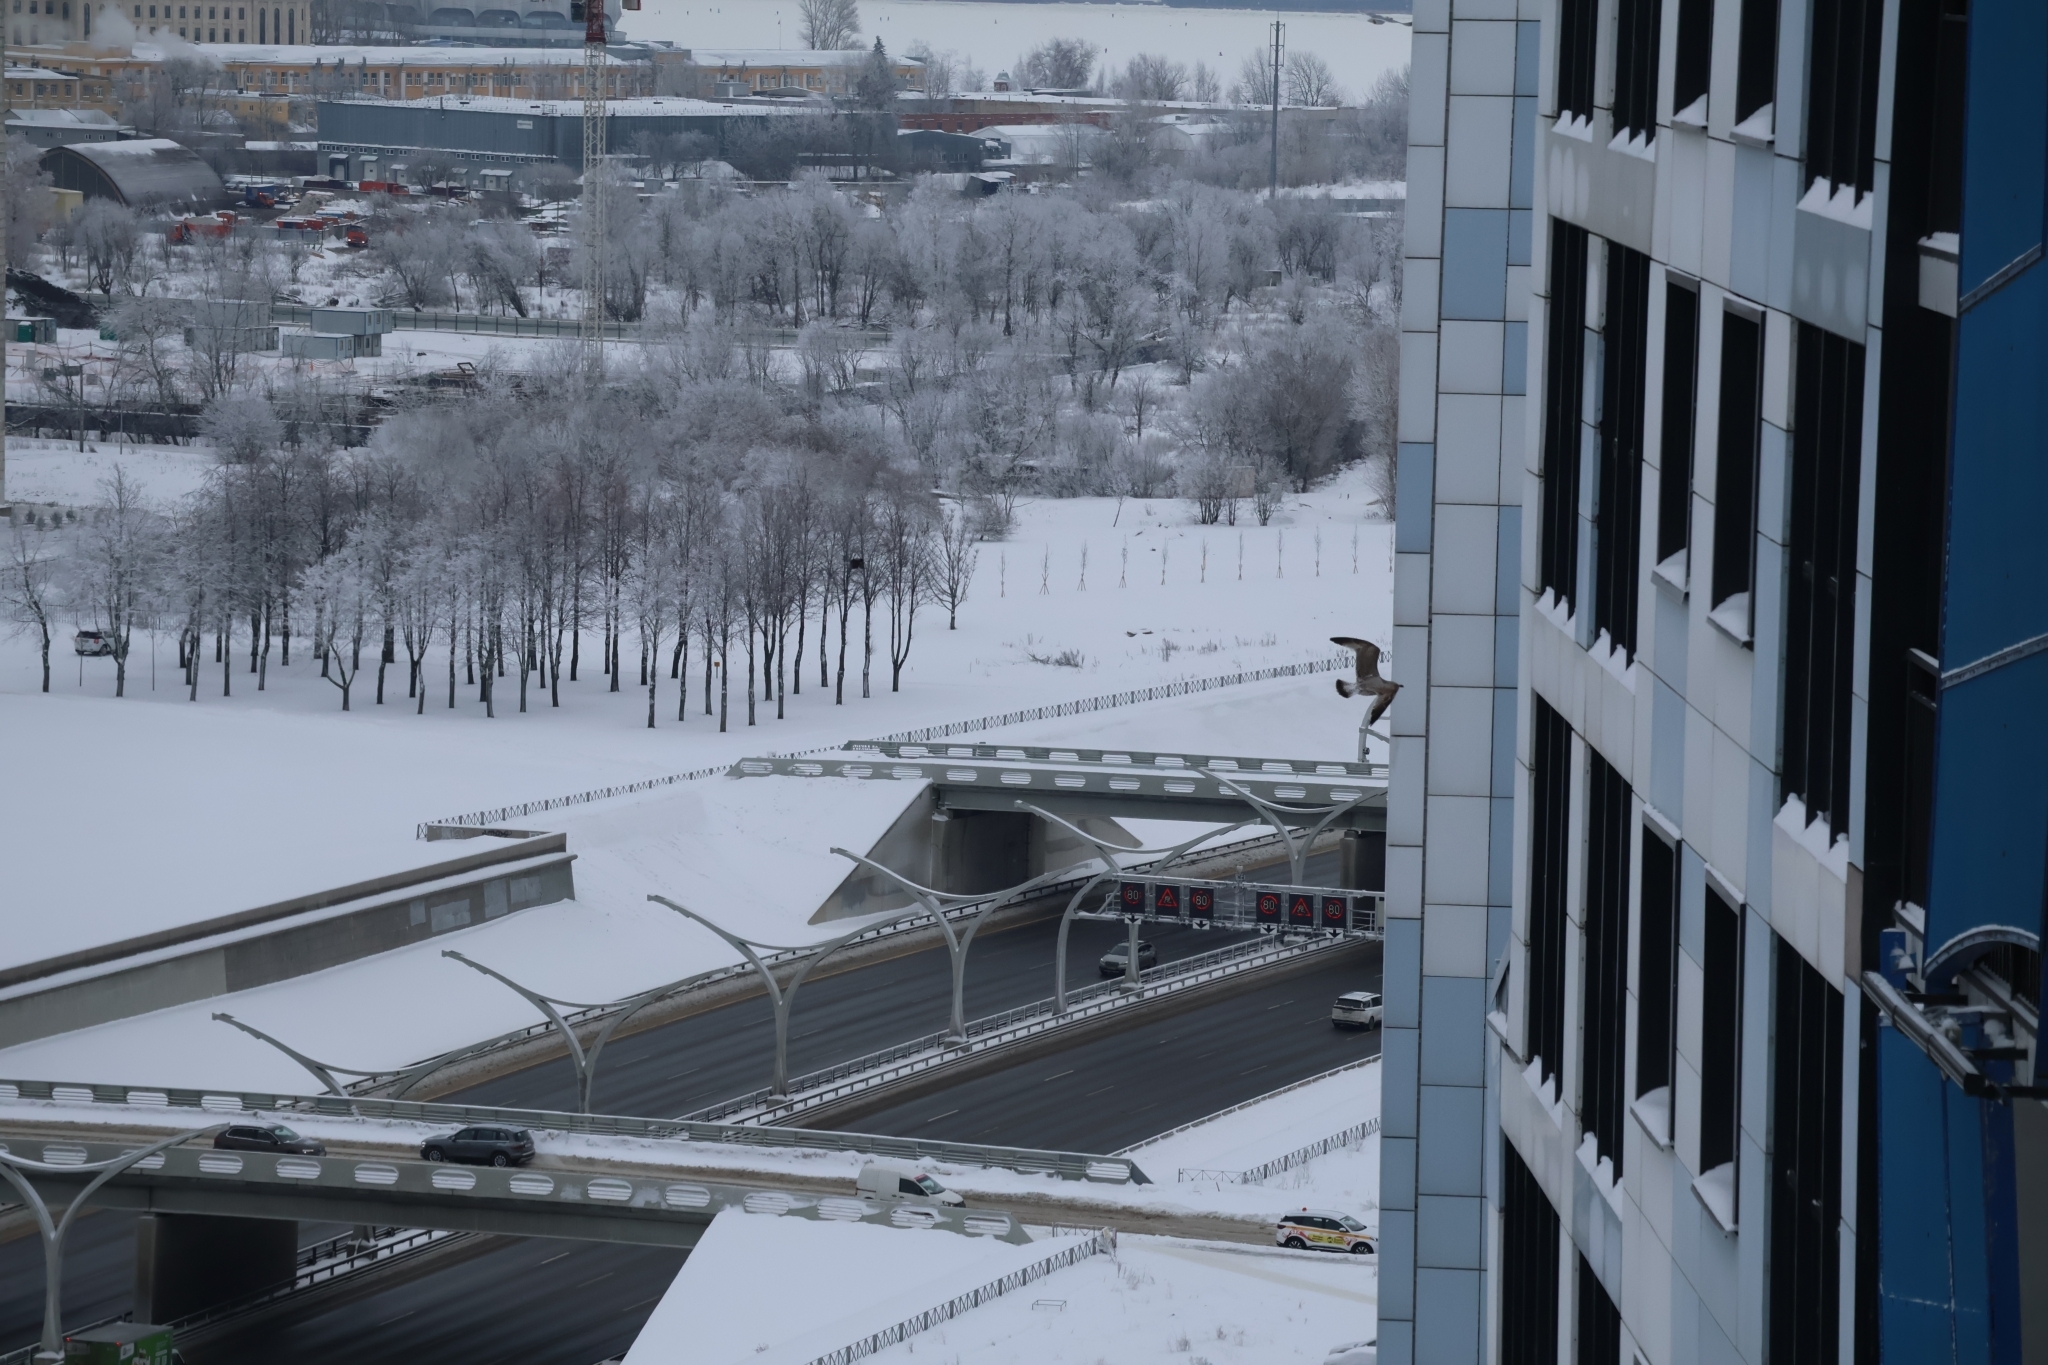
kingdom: Animalia
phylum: Chordata
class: Aves
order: Charadriiformes
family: Laridae
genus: Larus
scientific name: Larus argentatus
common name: Herring gull
